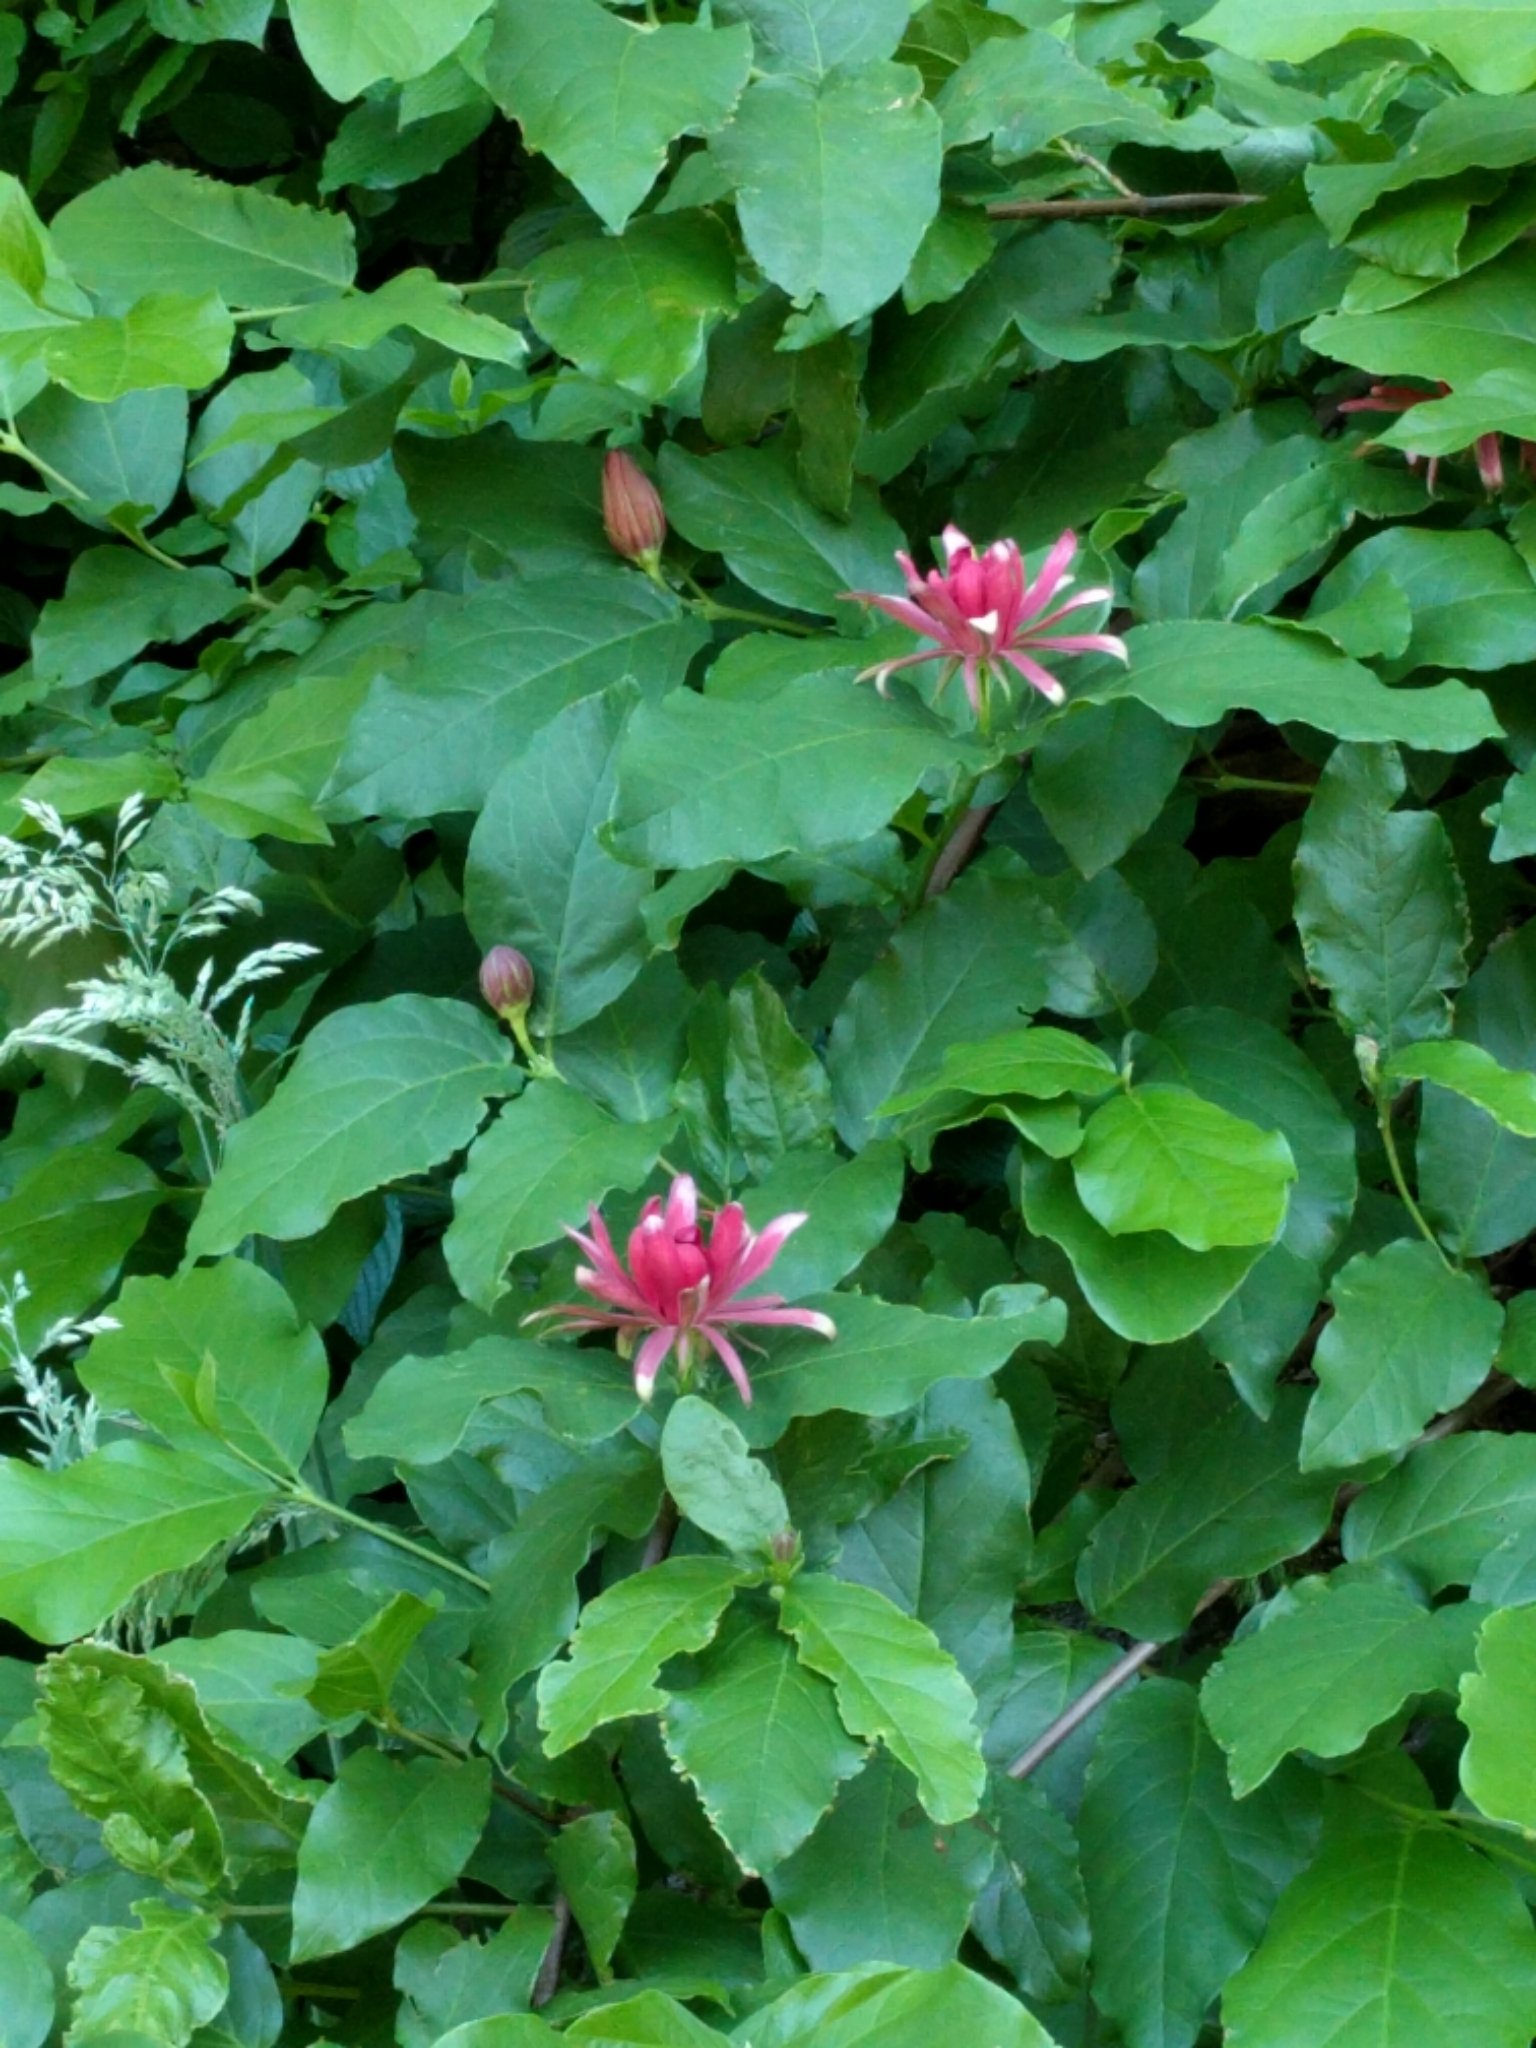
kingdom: Plantae
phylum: Tracheophyta
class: Magnoliopsida
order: Laurales
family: Calycanthaceae
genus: Calycanthus
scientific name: Calycanthus occidentalis
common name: California spicebush
